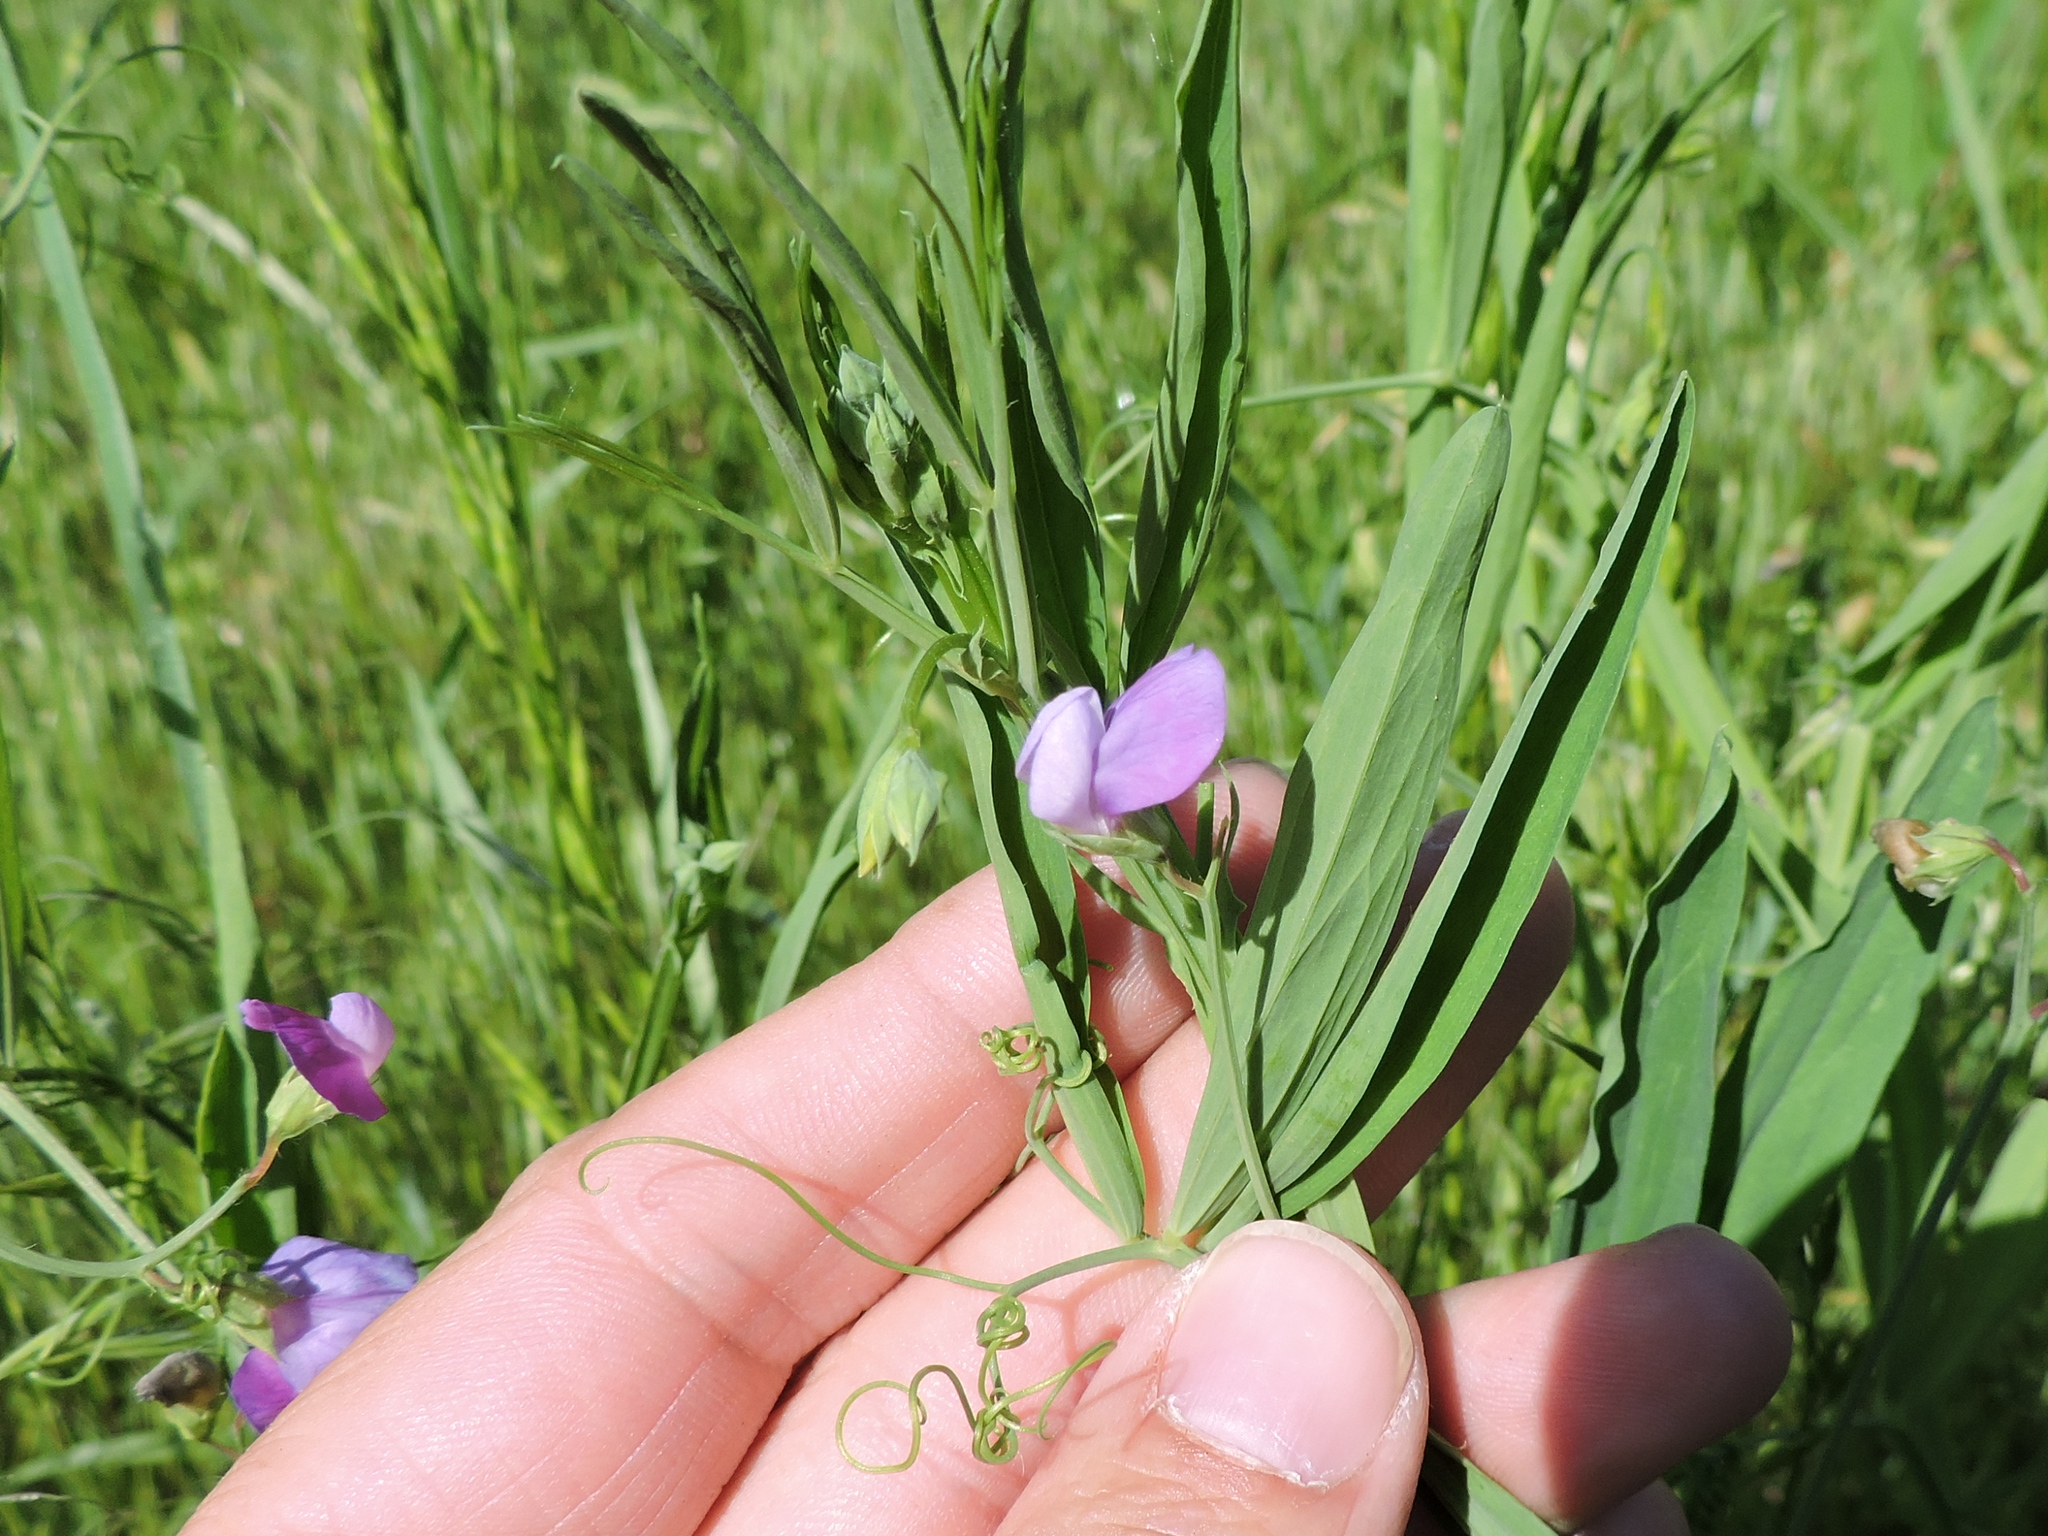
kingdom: Plantae
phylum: Tracheophyta
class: Magnoliopsida
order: Fabales
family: Fabaceae
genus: Lathyrus
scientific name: Lathyrus hirsutus
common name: Hairy vetchling
